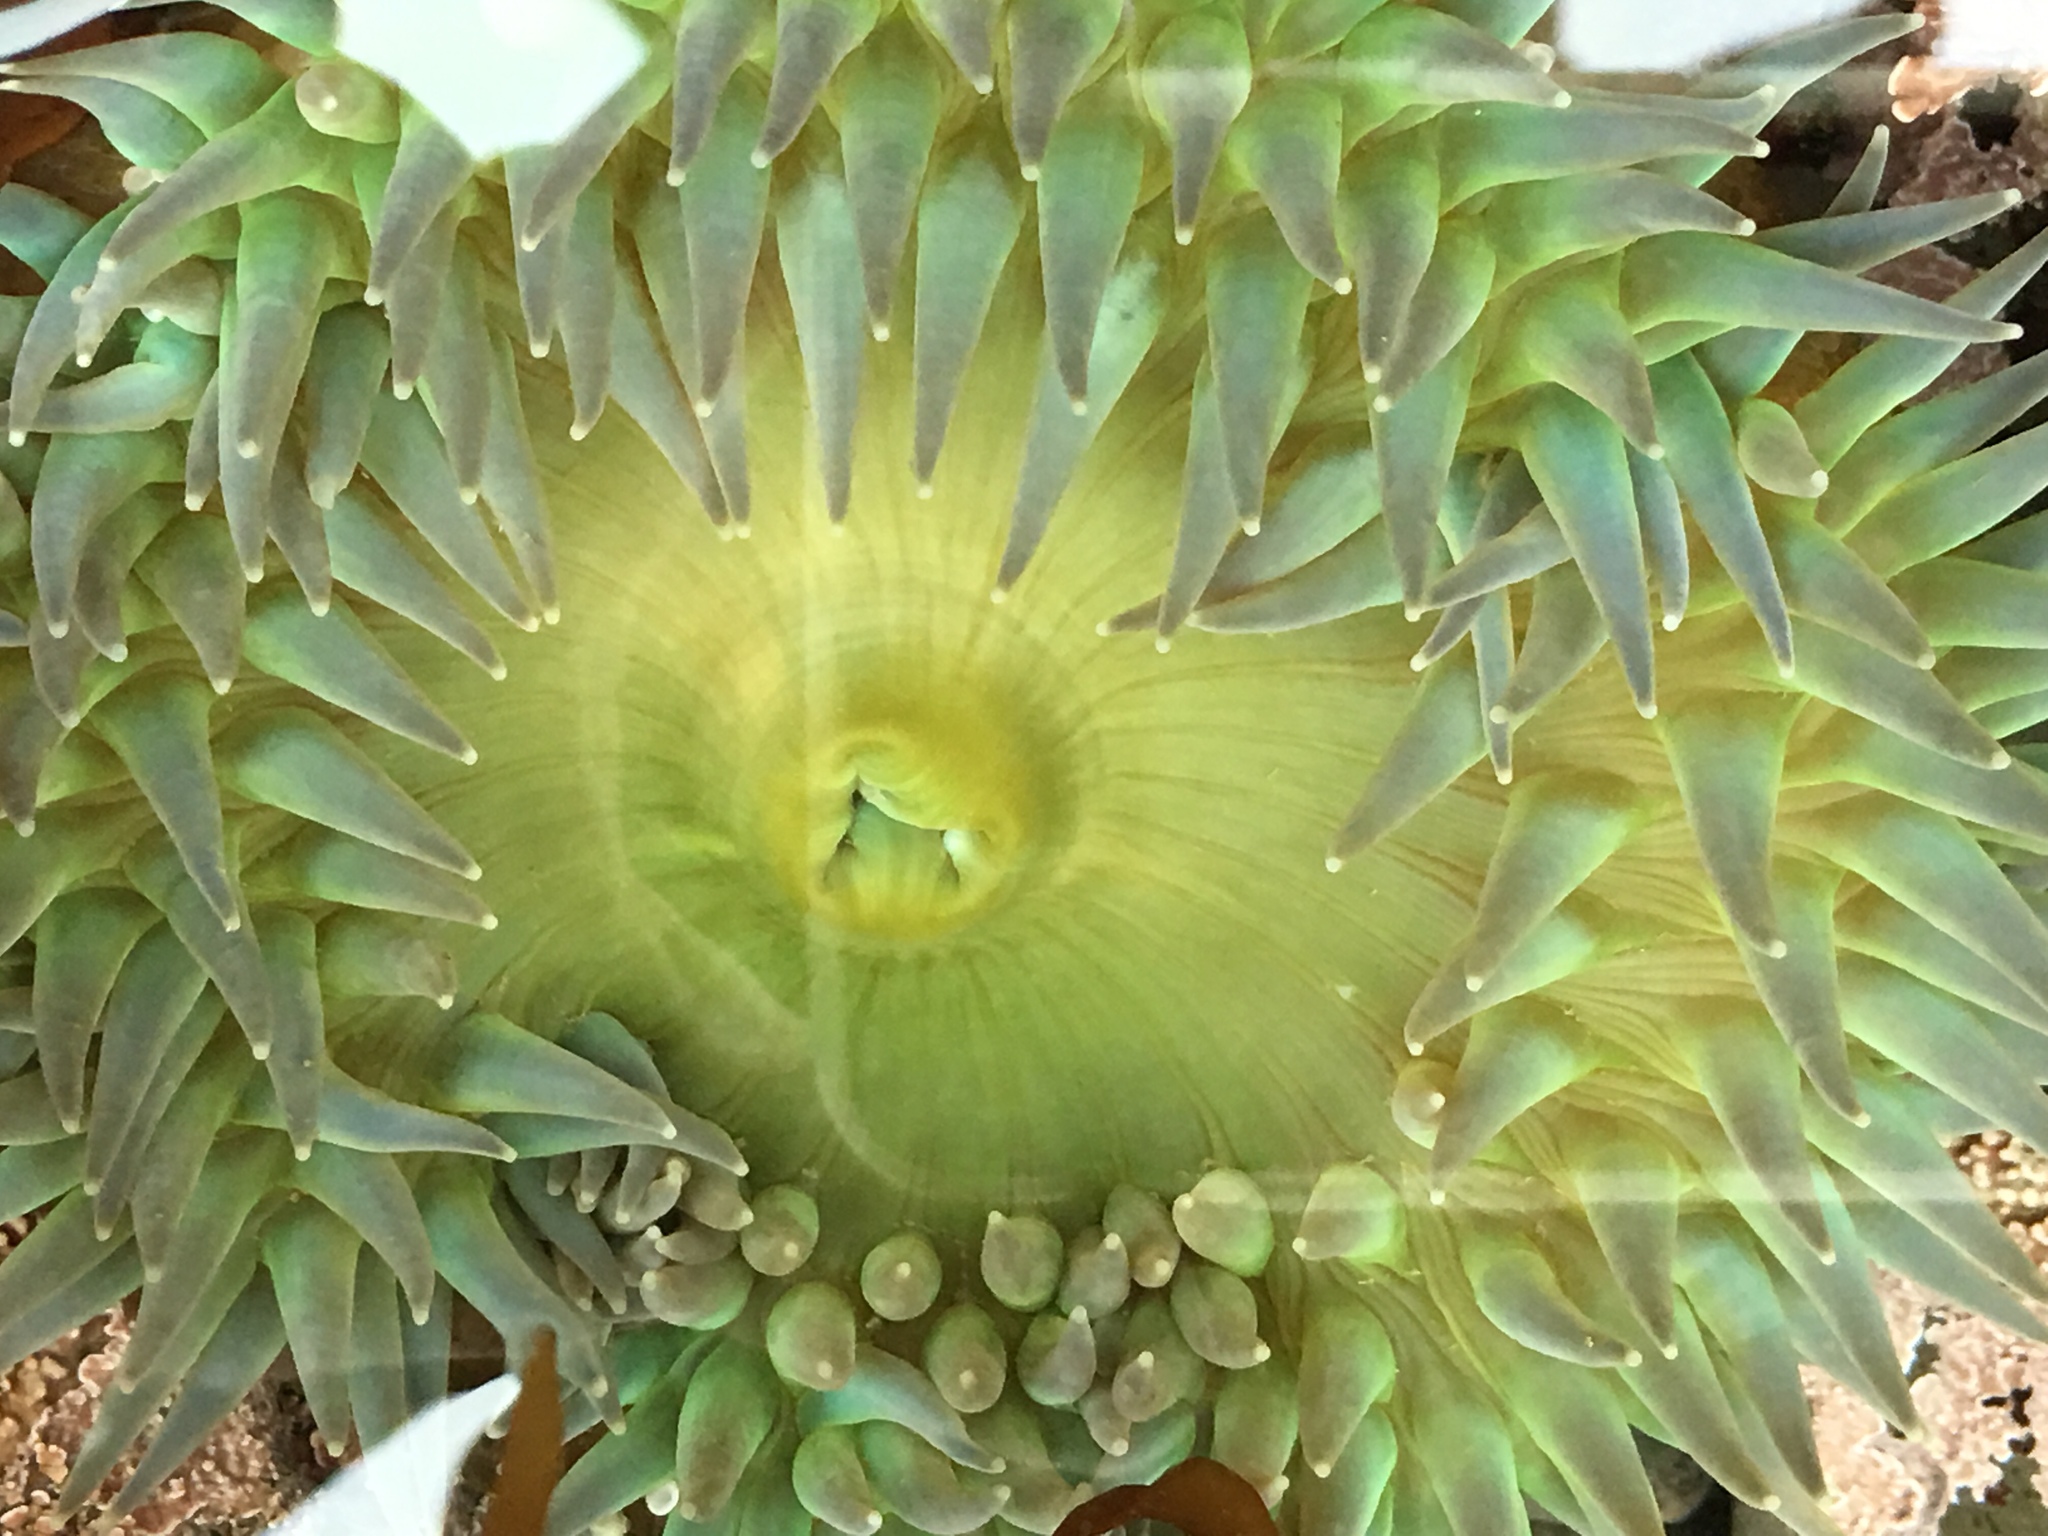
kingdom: Animalia
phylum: Cnidaria
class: Anthozoa
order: Actiniaria
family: Actiniidae
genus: Anthopleura
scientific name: Anthopleura xanthogrammica
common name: Giant green anemone
